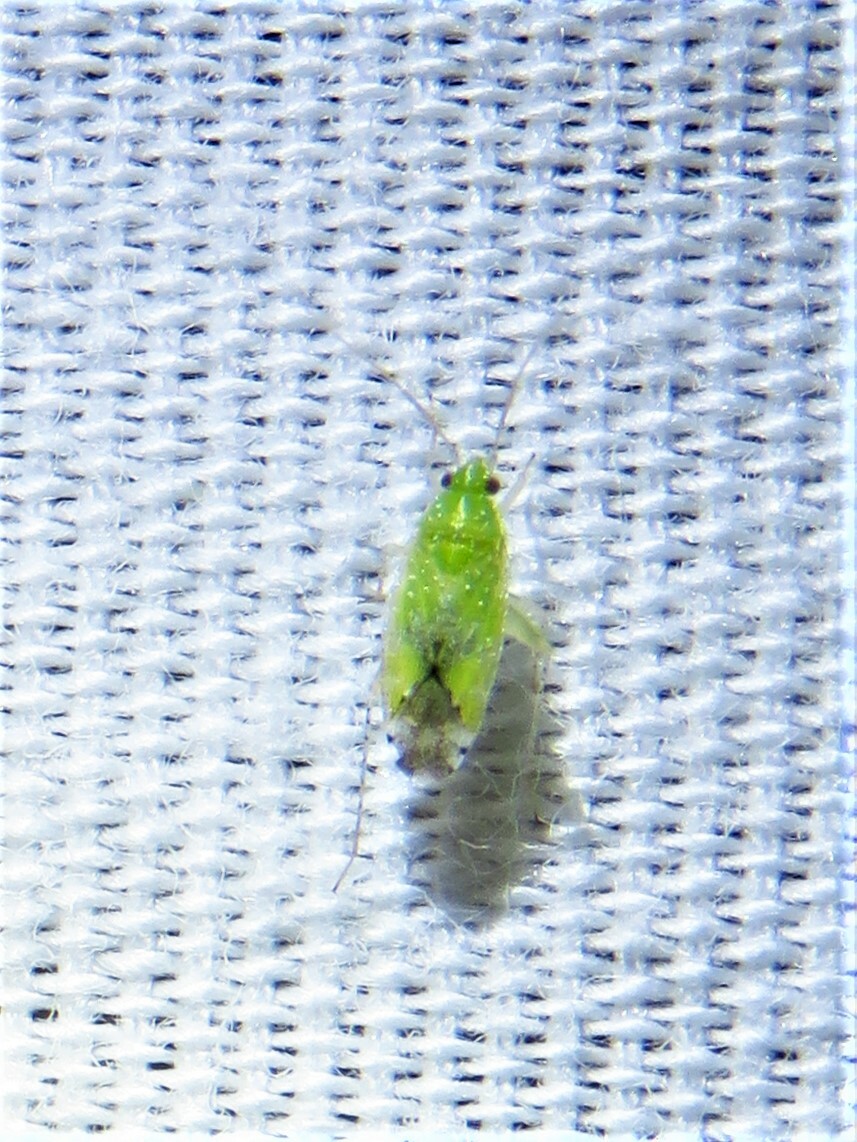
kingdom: Animalia
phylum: Arthropoda
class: Insecta
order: Hemiptera
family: Miridae
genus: Keltonia
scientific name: Keltonia tuckeri
